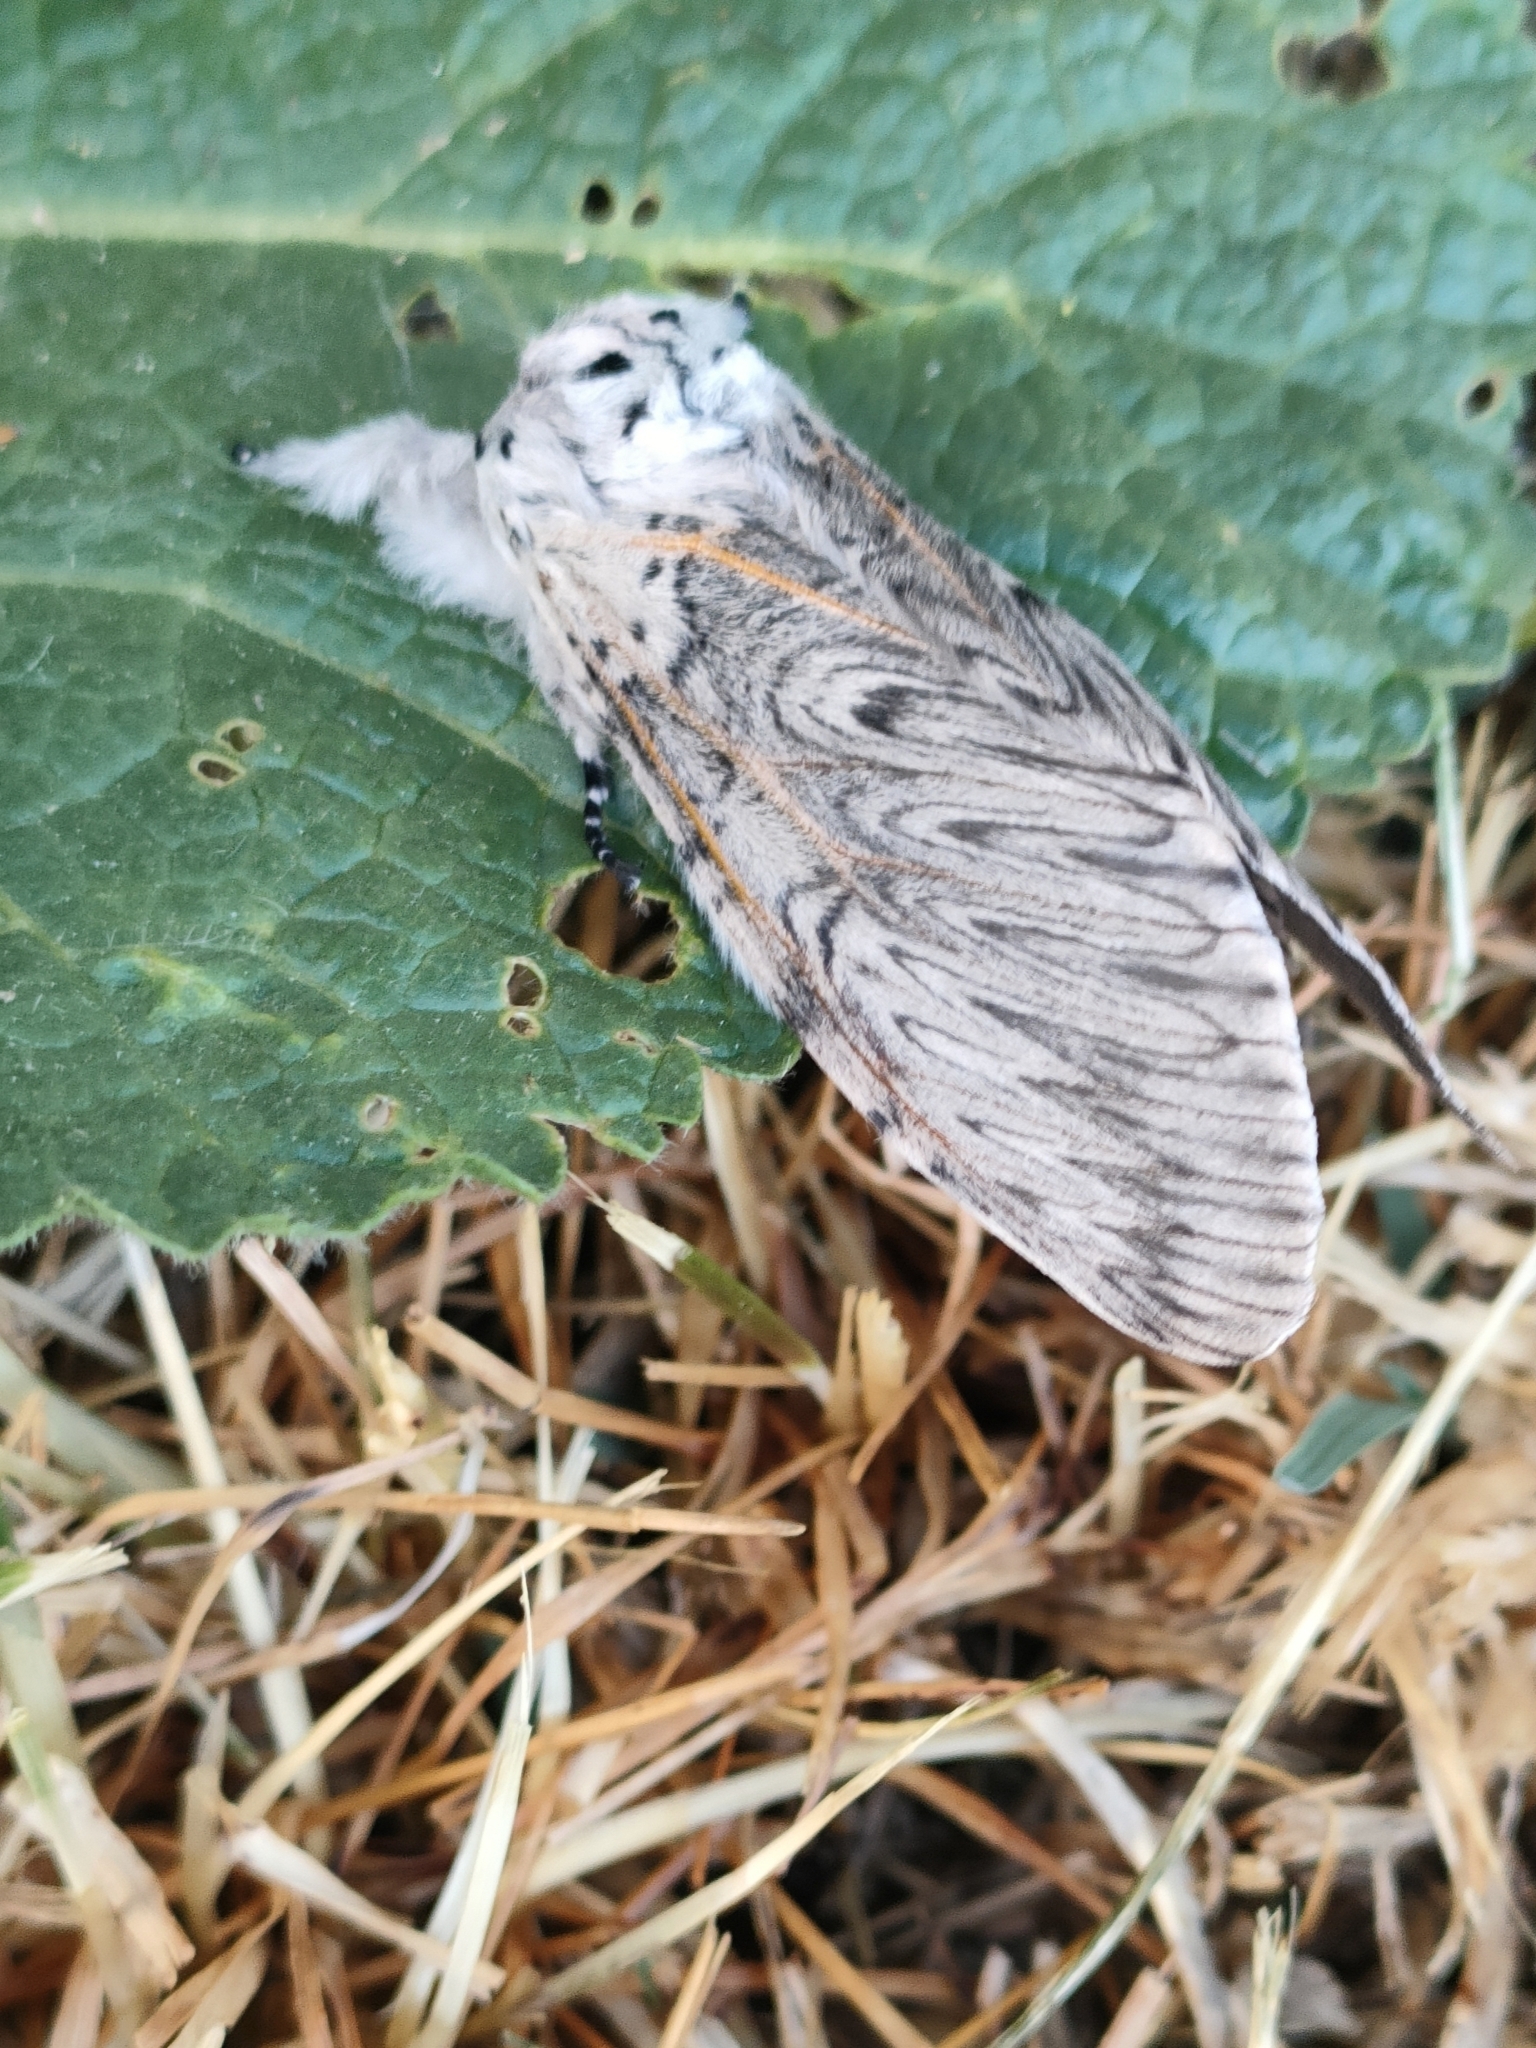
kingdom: Animalia
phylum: Arthropoda
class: Insecta
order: Lepidoptera
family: Notodontidae
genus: Cerura
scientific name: Cerura iberica
